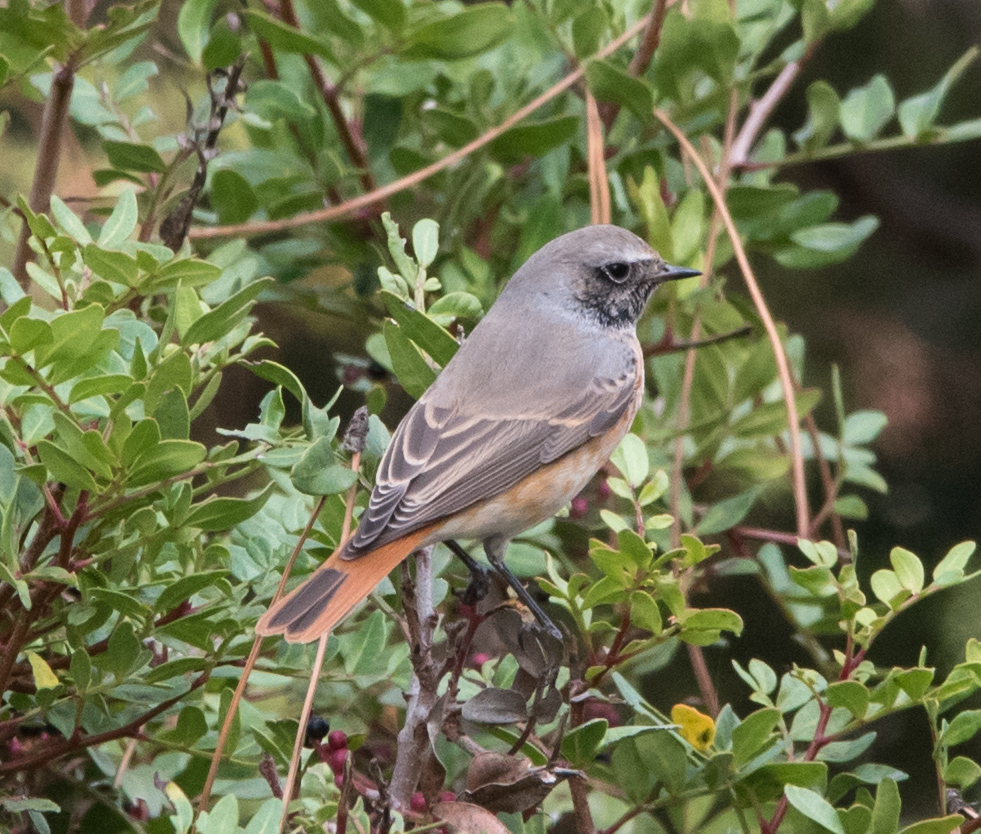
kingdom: Animalia
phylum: Chordata
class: Aves
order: Passeriformes
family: Muscicapidae
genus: Phoenicurus
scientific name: Phoenicurus phoenicurus
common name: Common redstart
